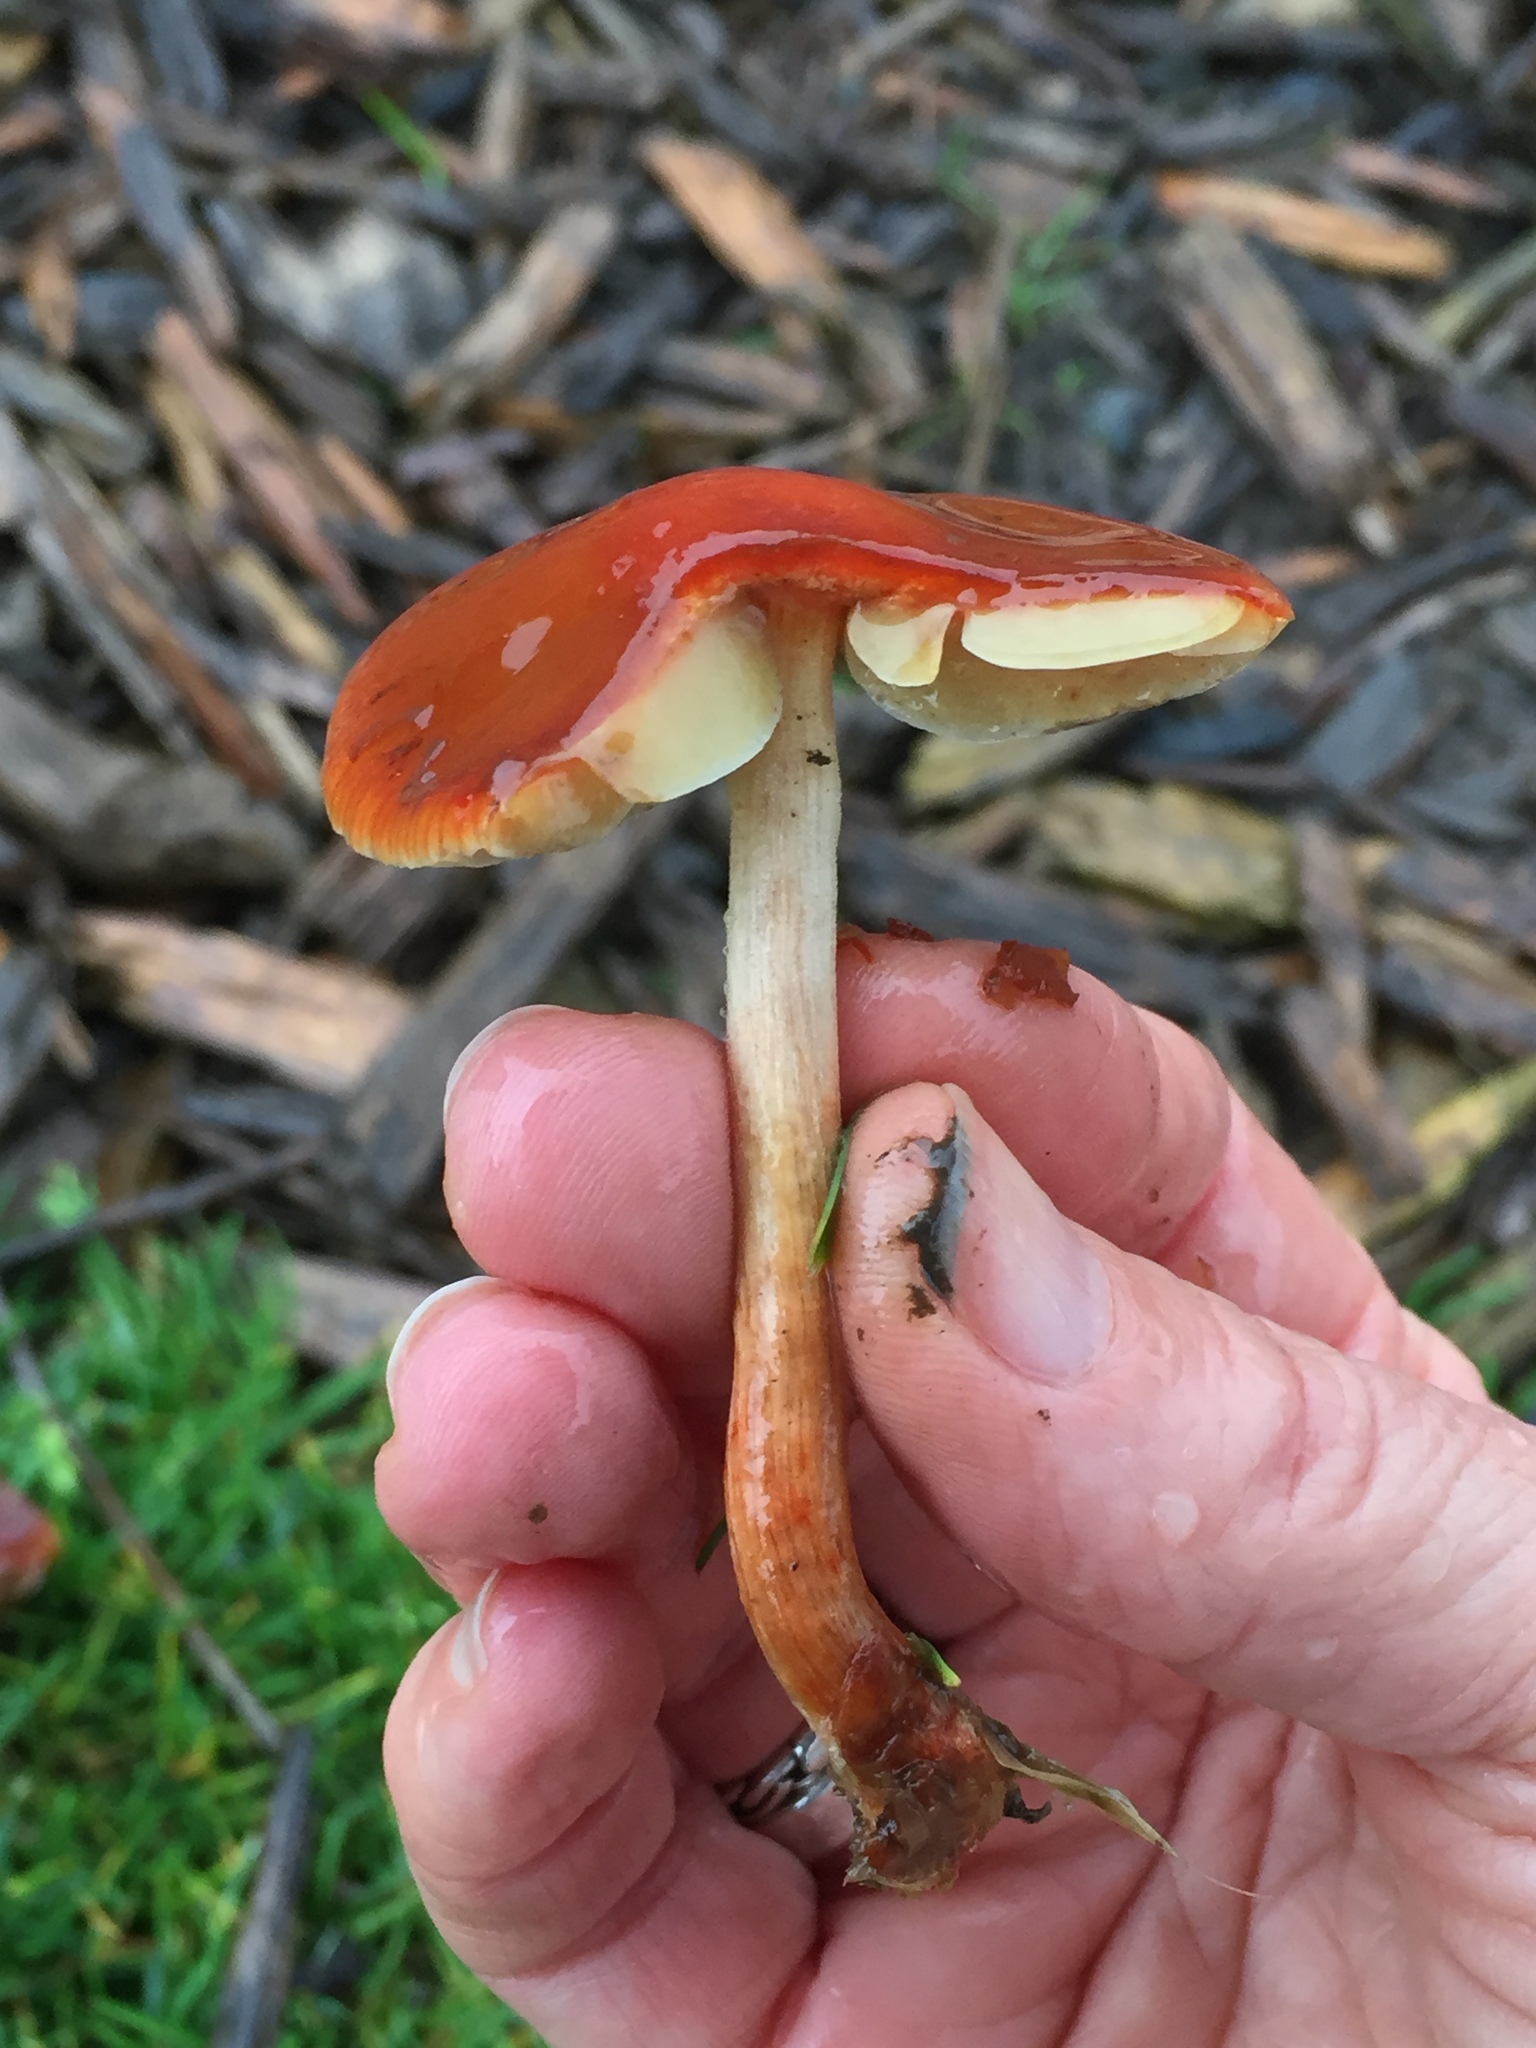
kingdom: Fungi
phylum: Basidiomycota
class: Agaricomycetes
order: Agaricales
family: Strophariaceae
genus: Leratiomyces
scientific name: Leratiomyces ceres
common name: Redlead roundhead
